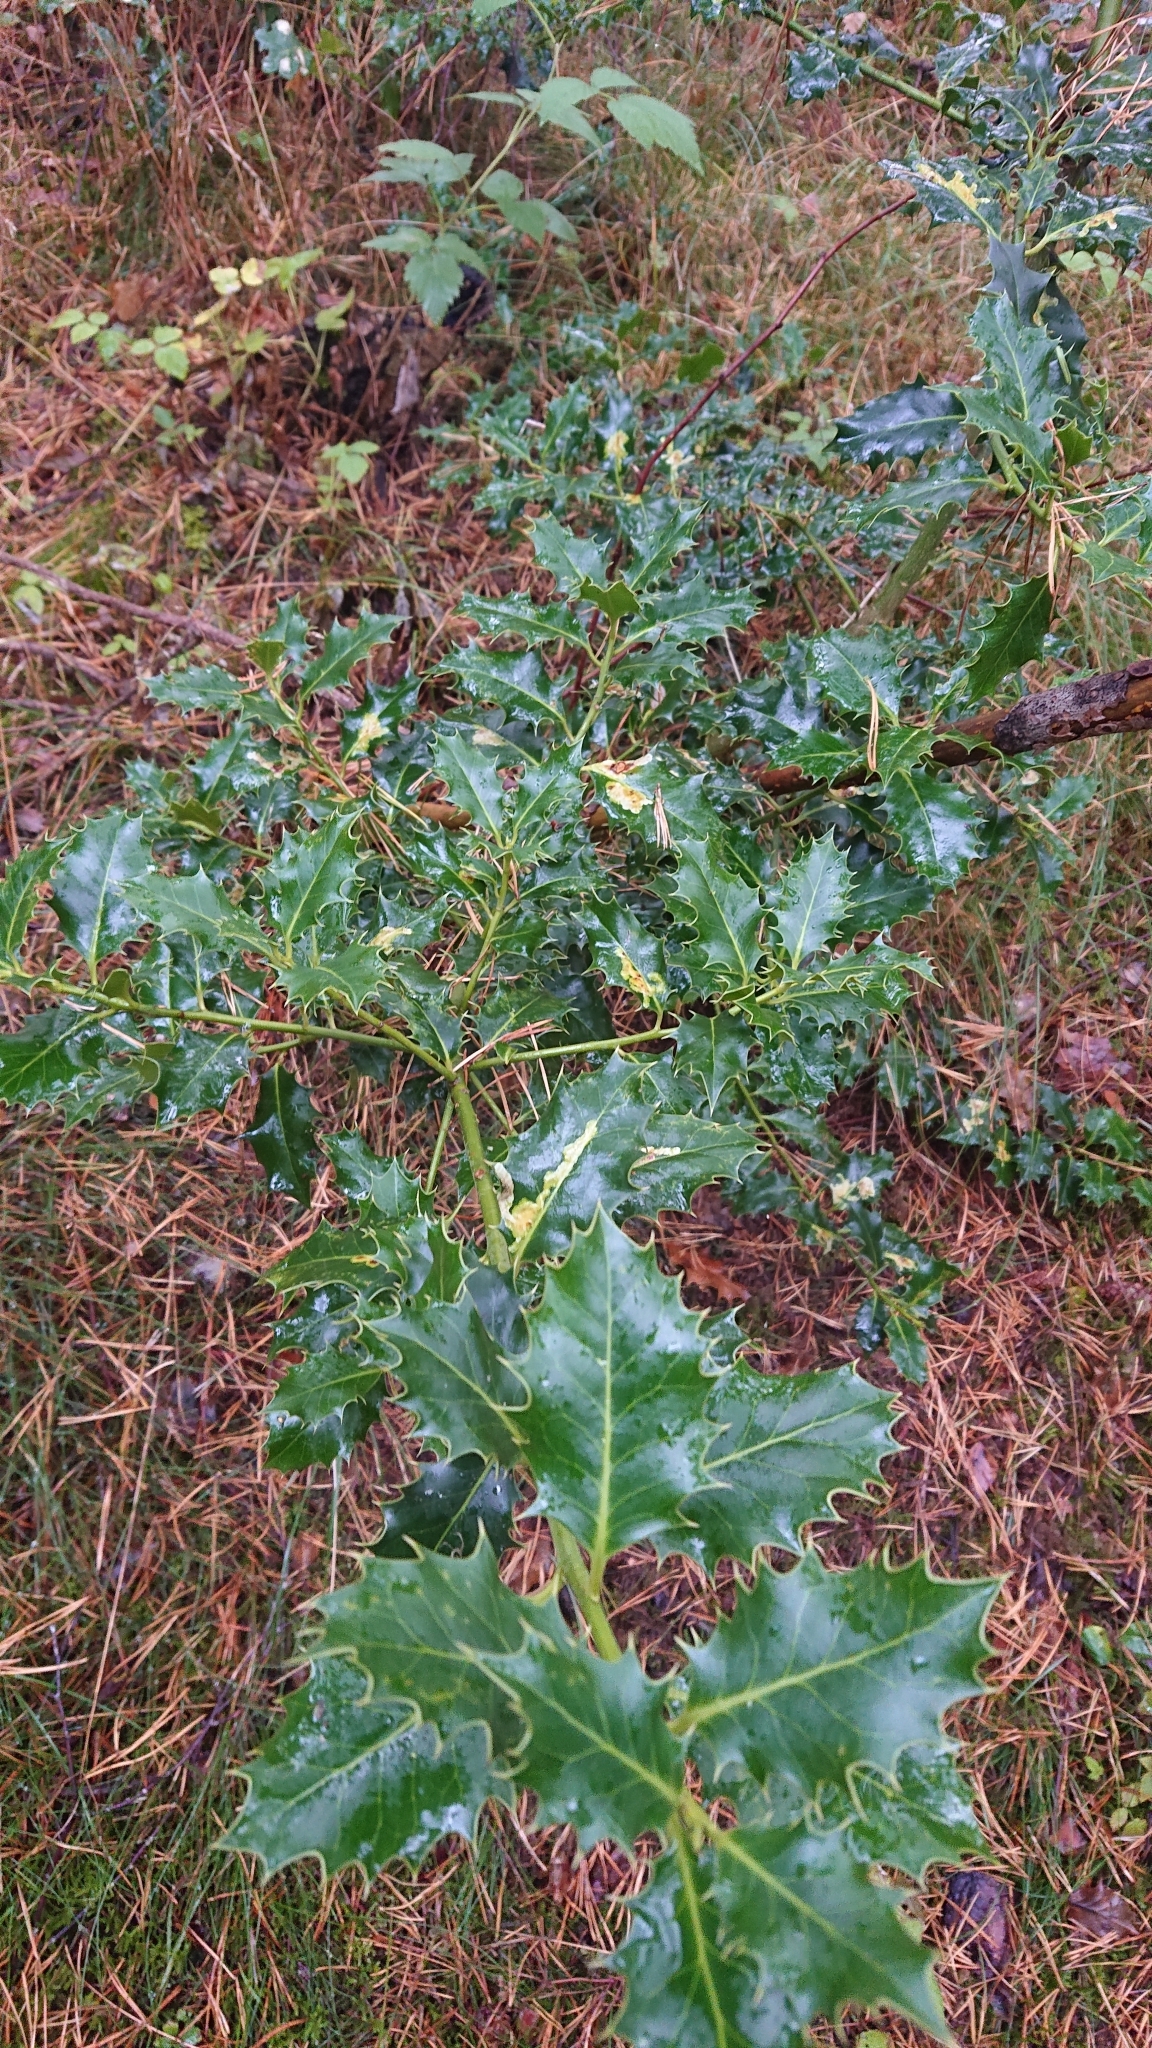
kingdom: Plantae
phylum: Tracheophyta
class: Magnoliopsida
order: Aquifoliales
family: Aquifoliaceae
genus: Ilex
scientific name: Ilex aquifolium
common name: English holly
